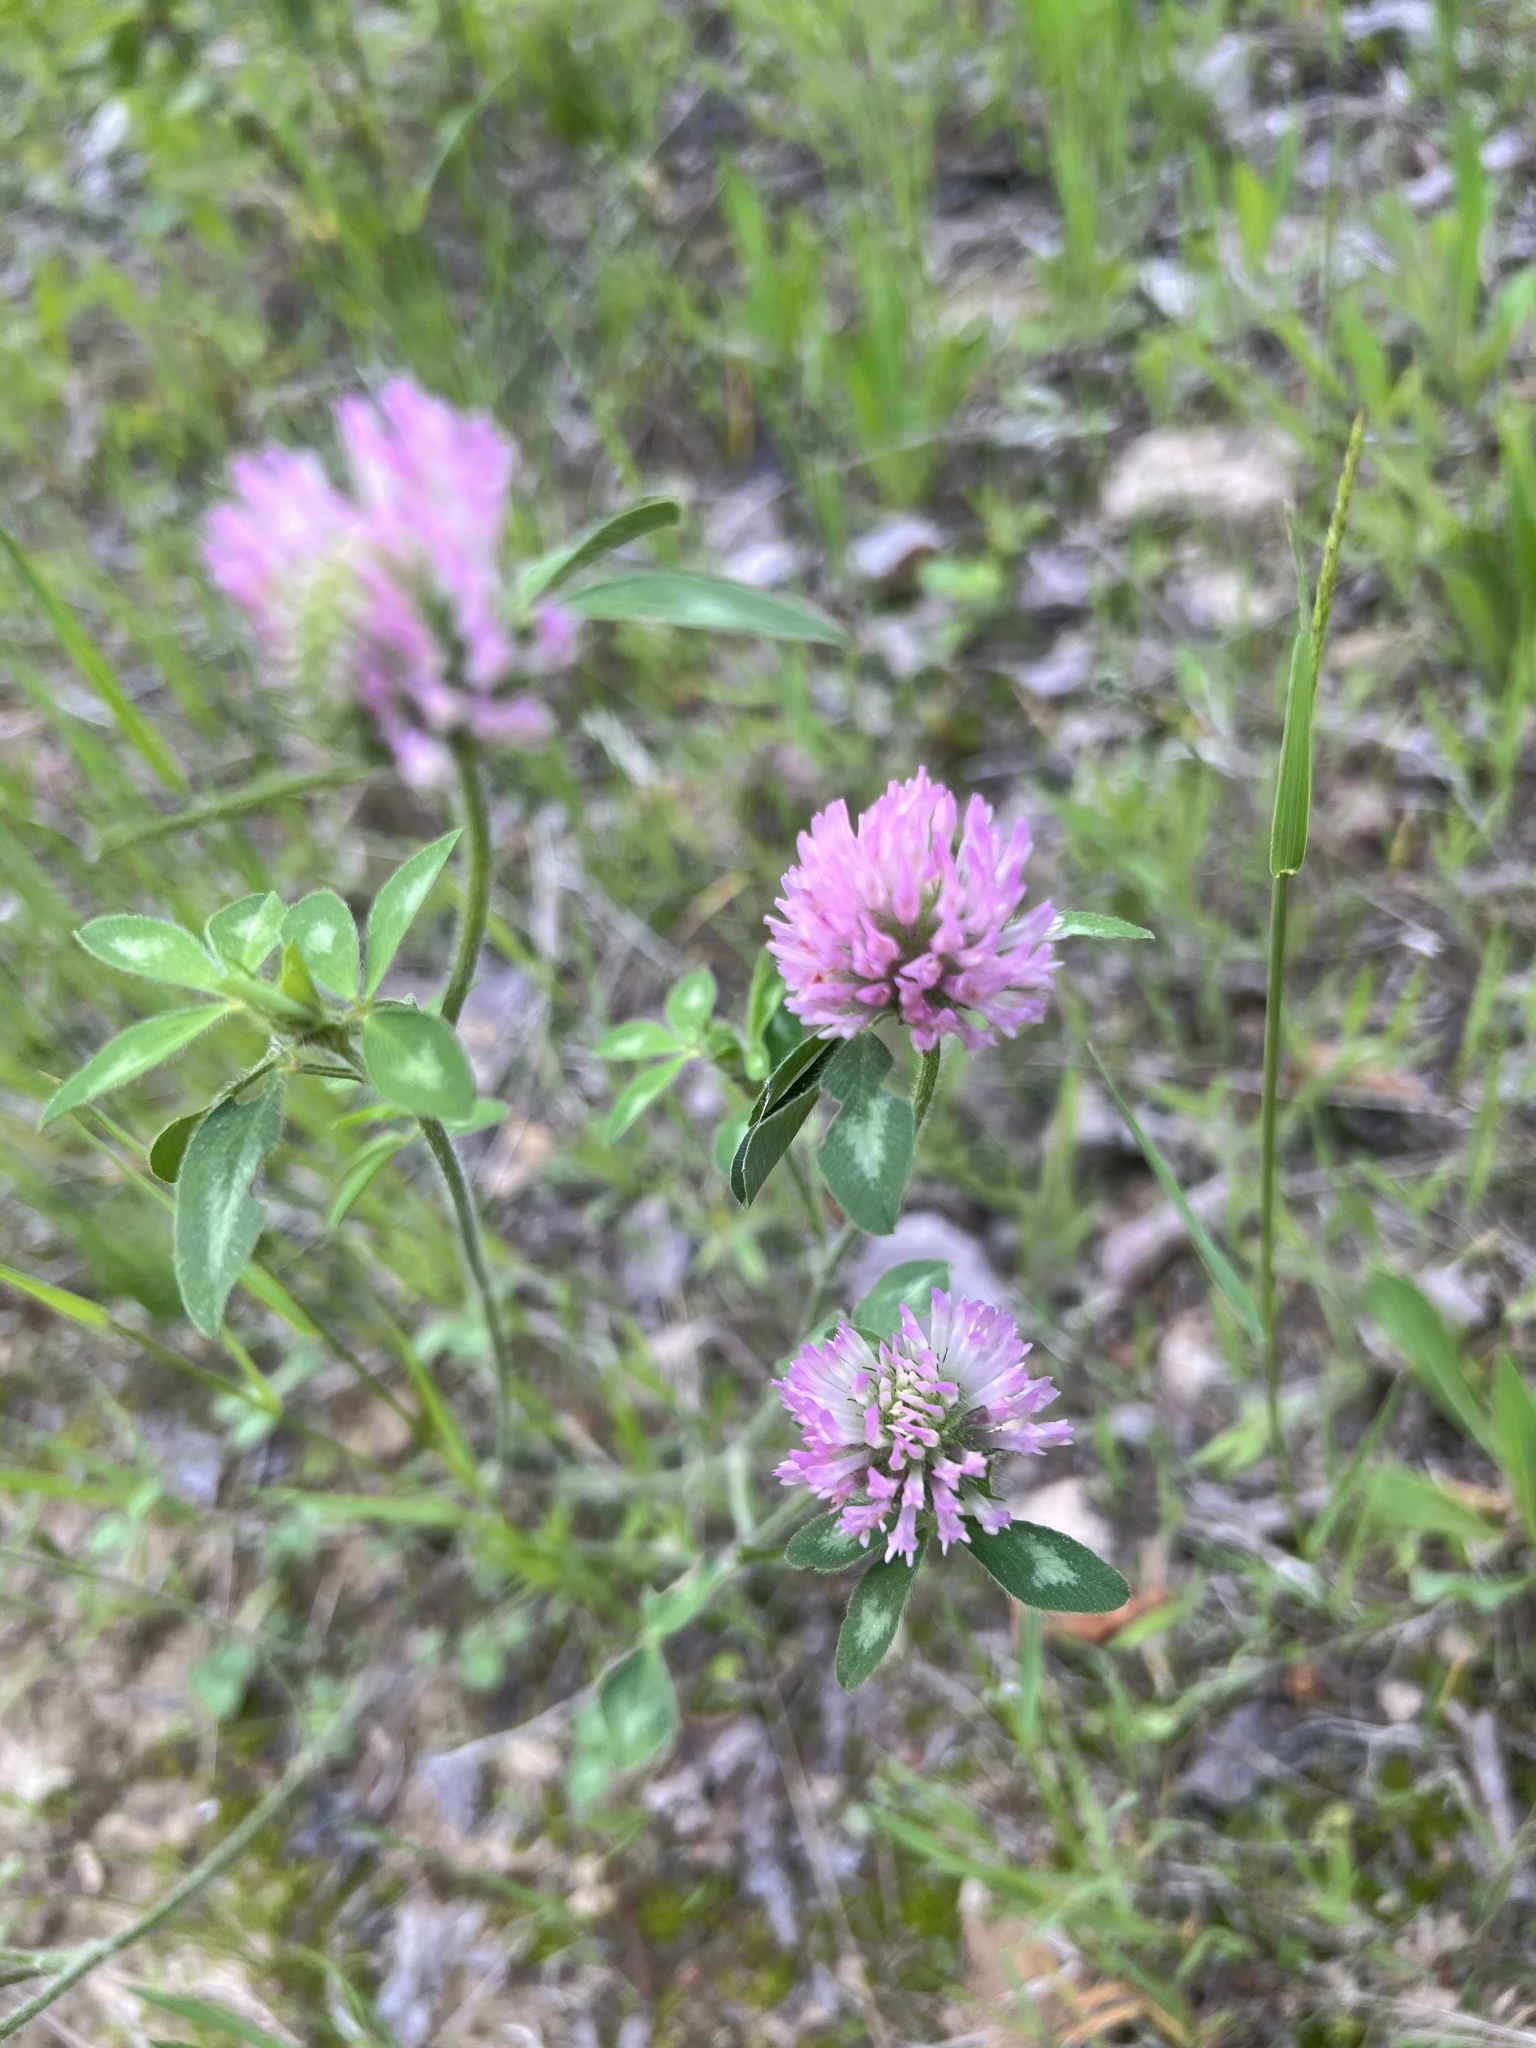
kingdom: Plantae
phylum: Tracheophyta
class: Magnoliopsida
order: Fabales
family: Fabaceae
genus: Trifolium
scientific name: Trifolium pratense
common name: Red clover
